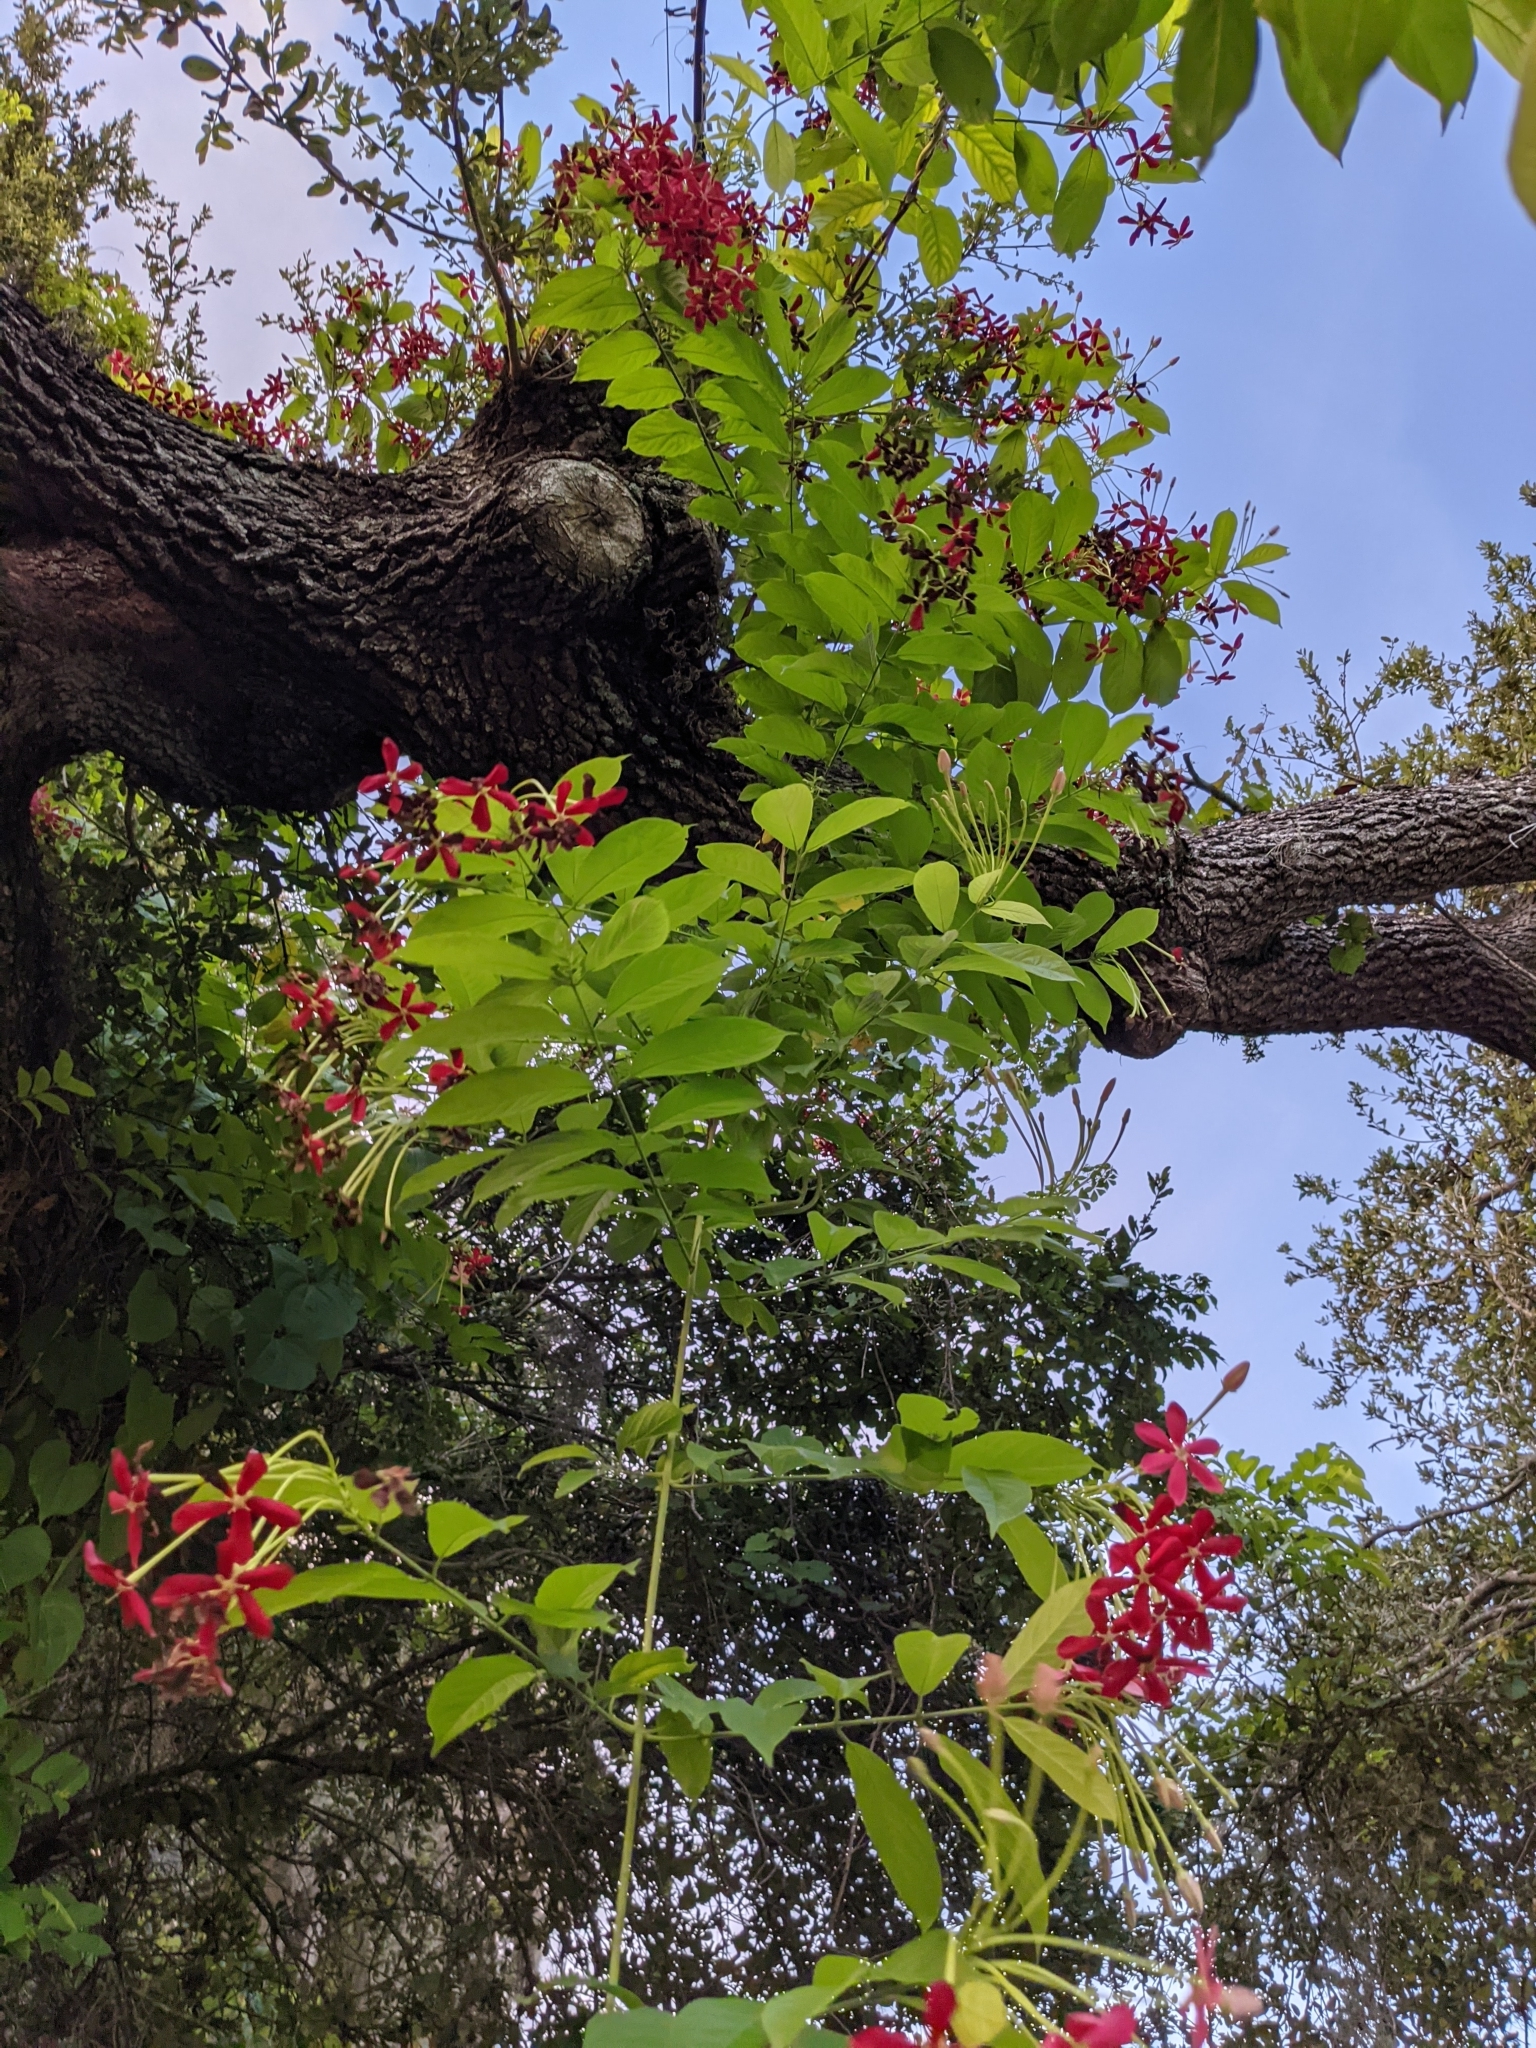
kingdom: Plantae
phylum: Tracheophyta
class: Magnoliopsida
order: Myrtales
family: Combretaceae
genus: Combretum
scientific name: Combretum indicum
